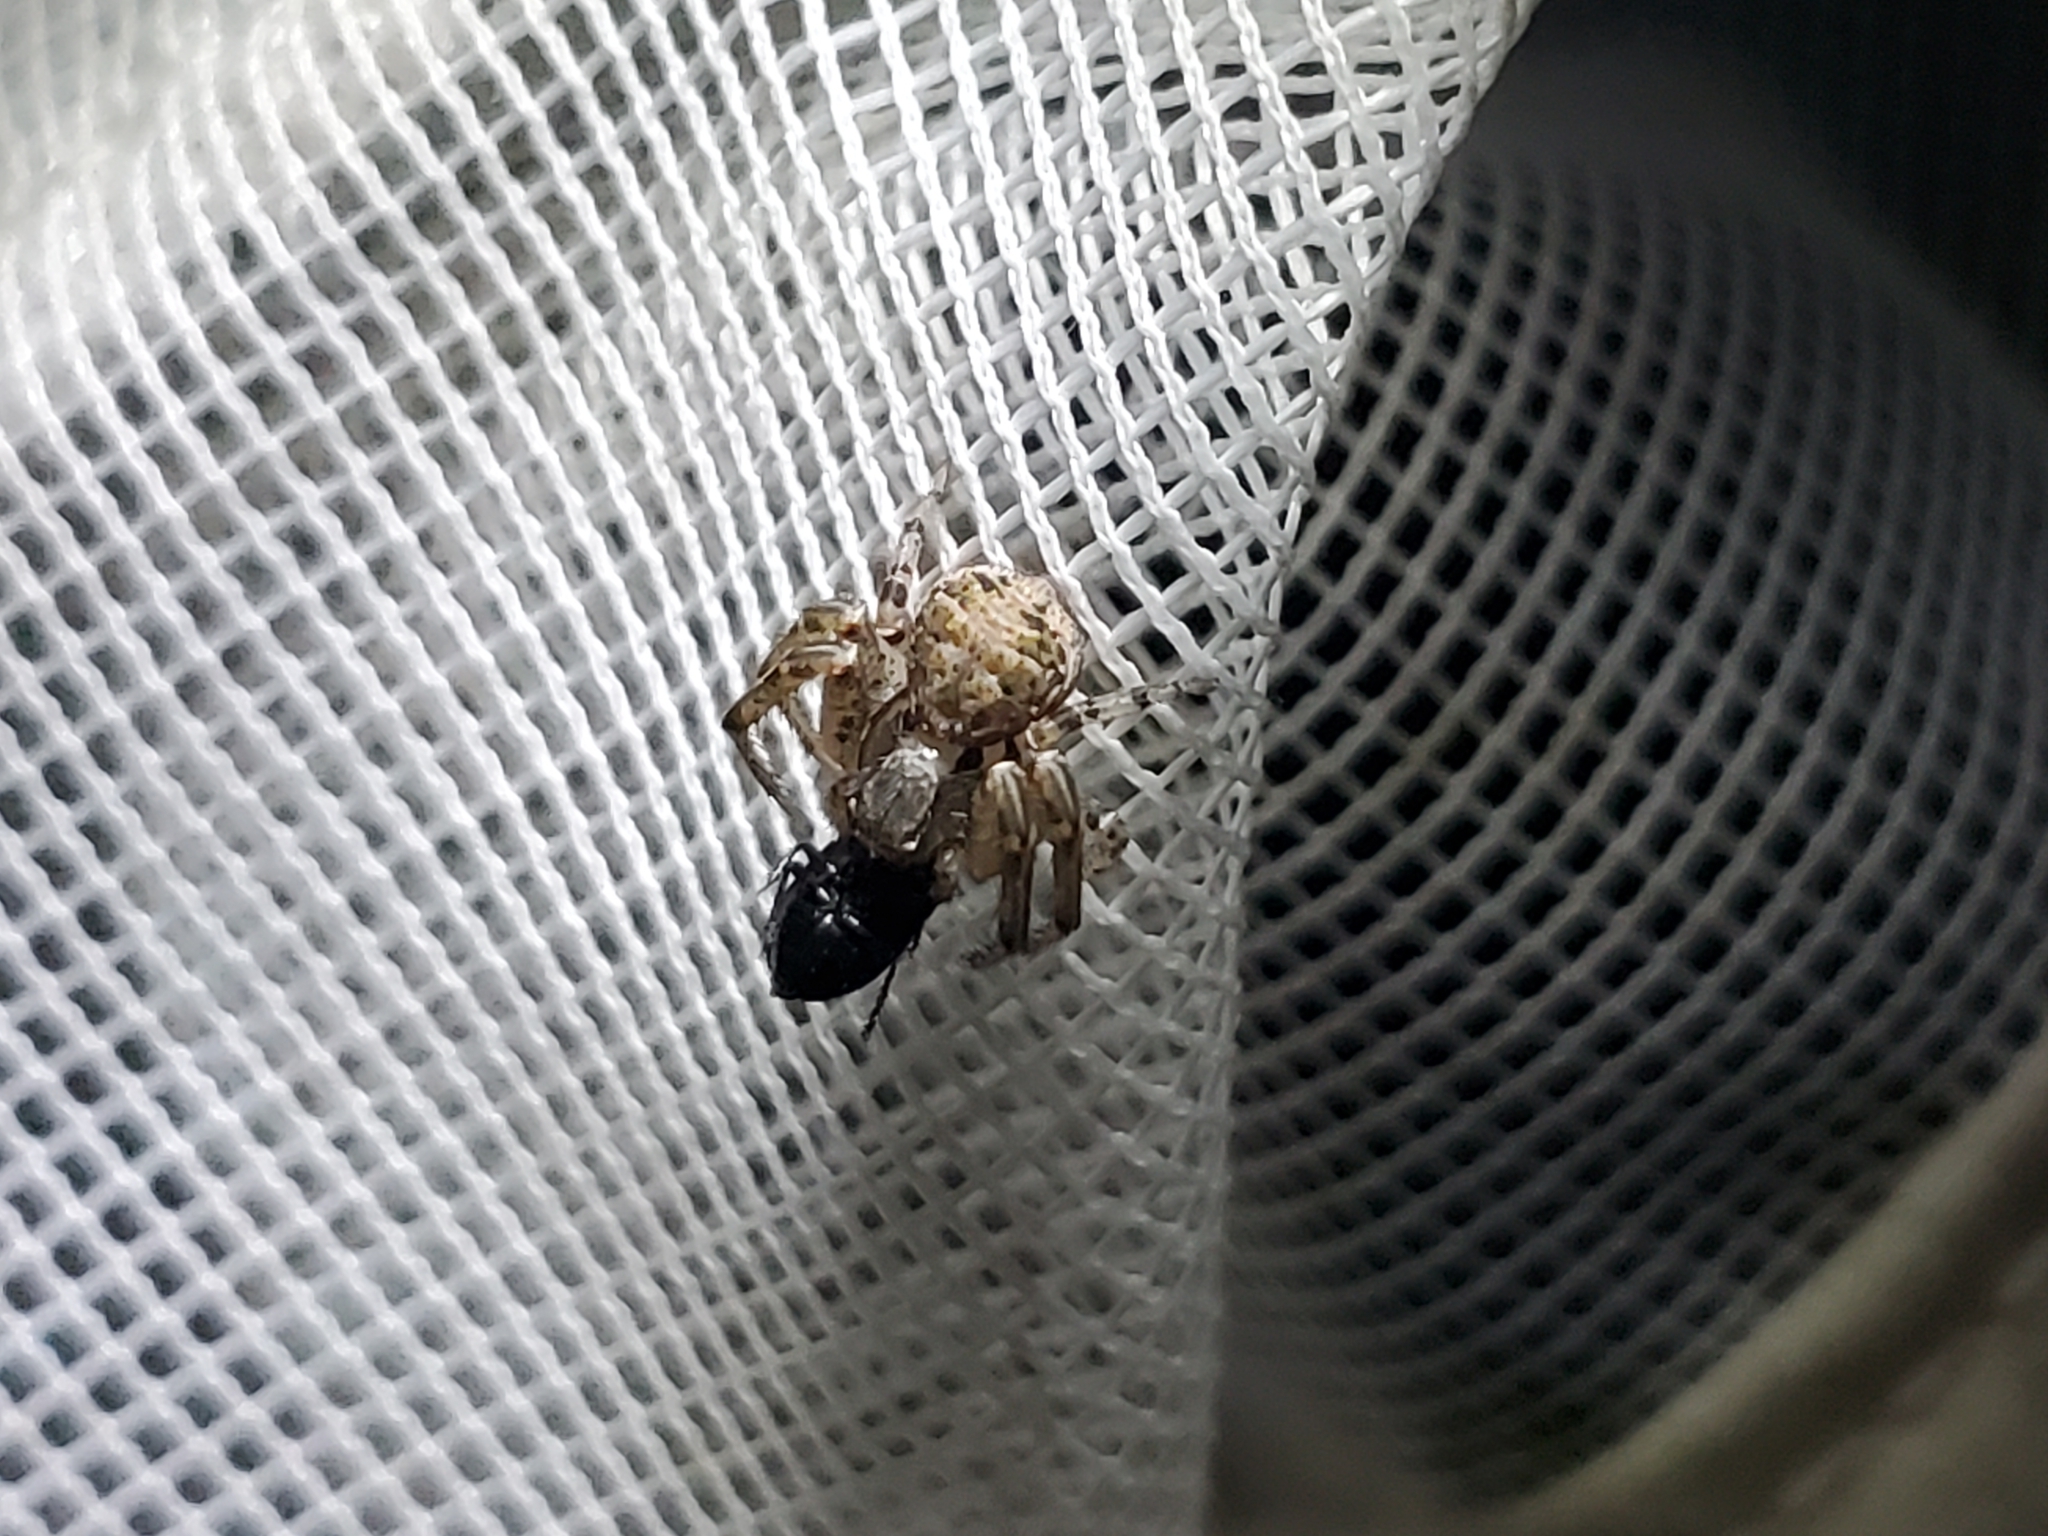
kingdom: Animalia
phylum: Arthropoda
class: Arachnida
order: Araneae
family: Thomisidae
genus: Xysticus
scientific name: Xysticus
